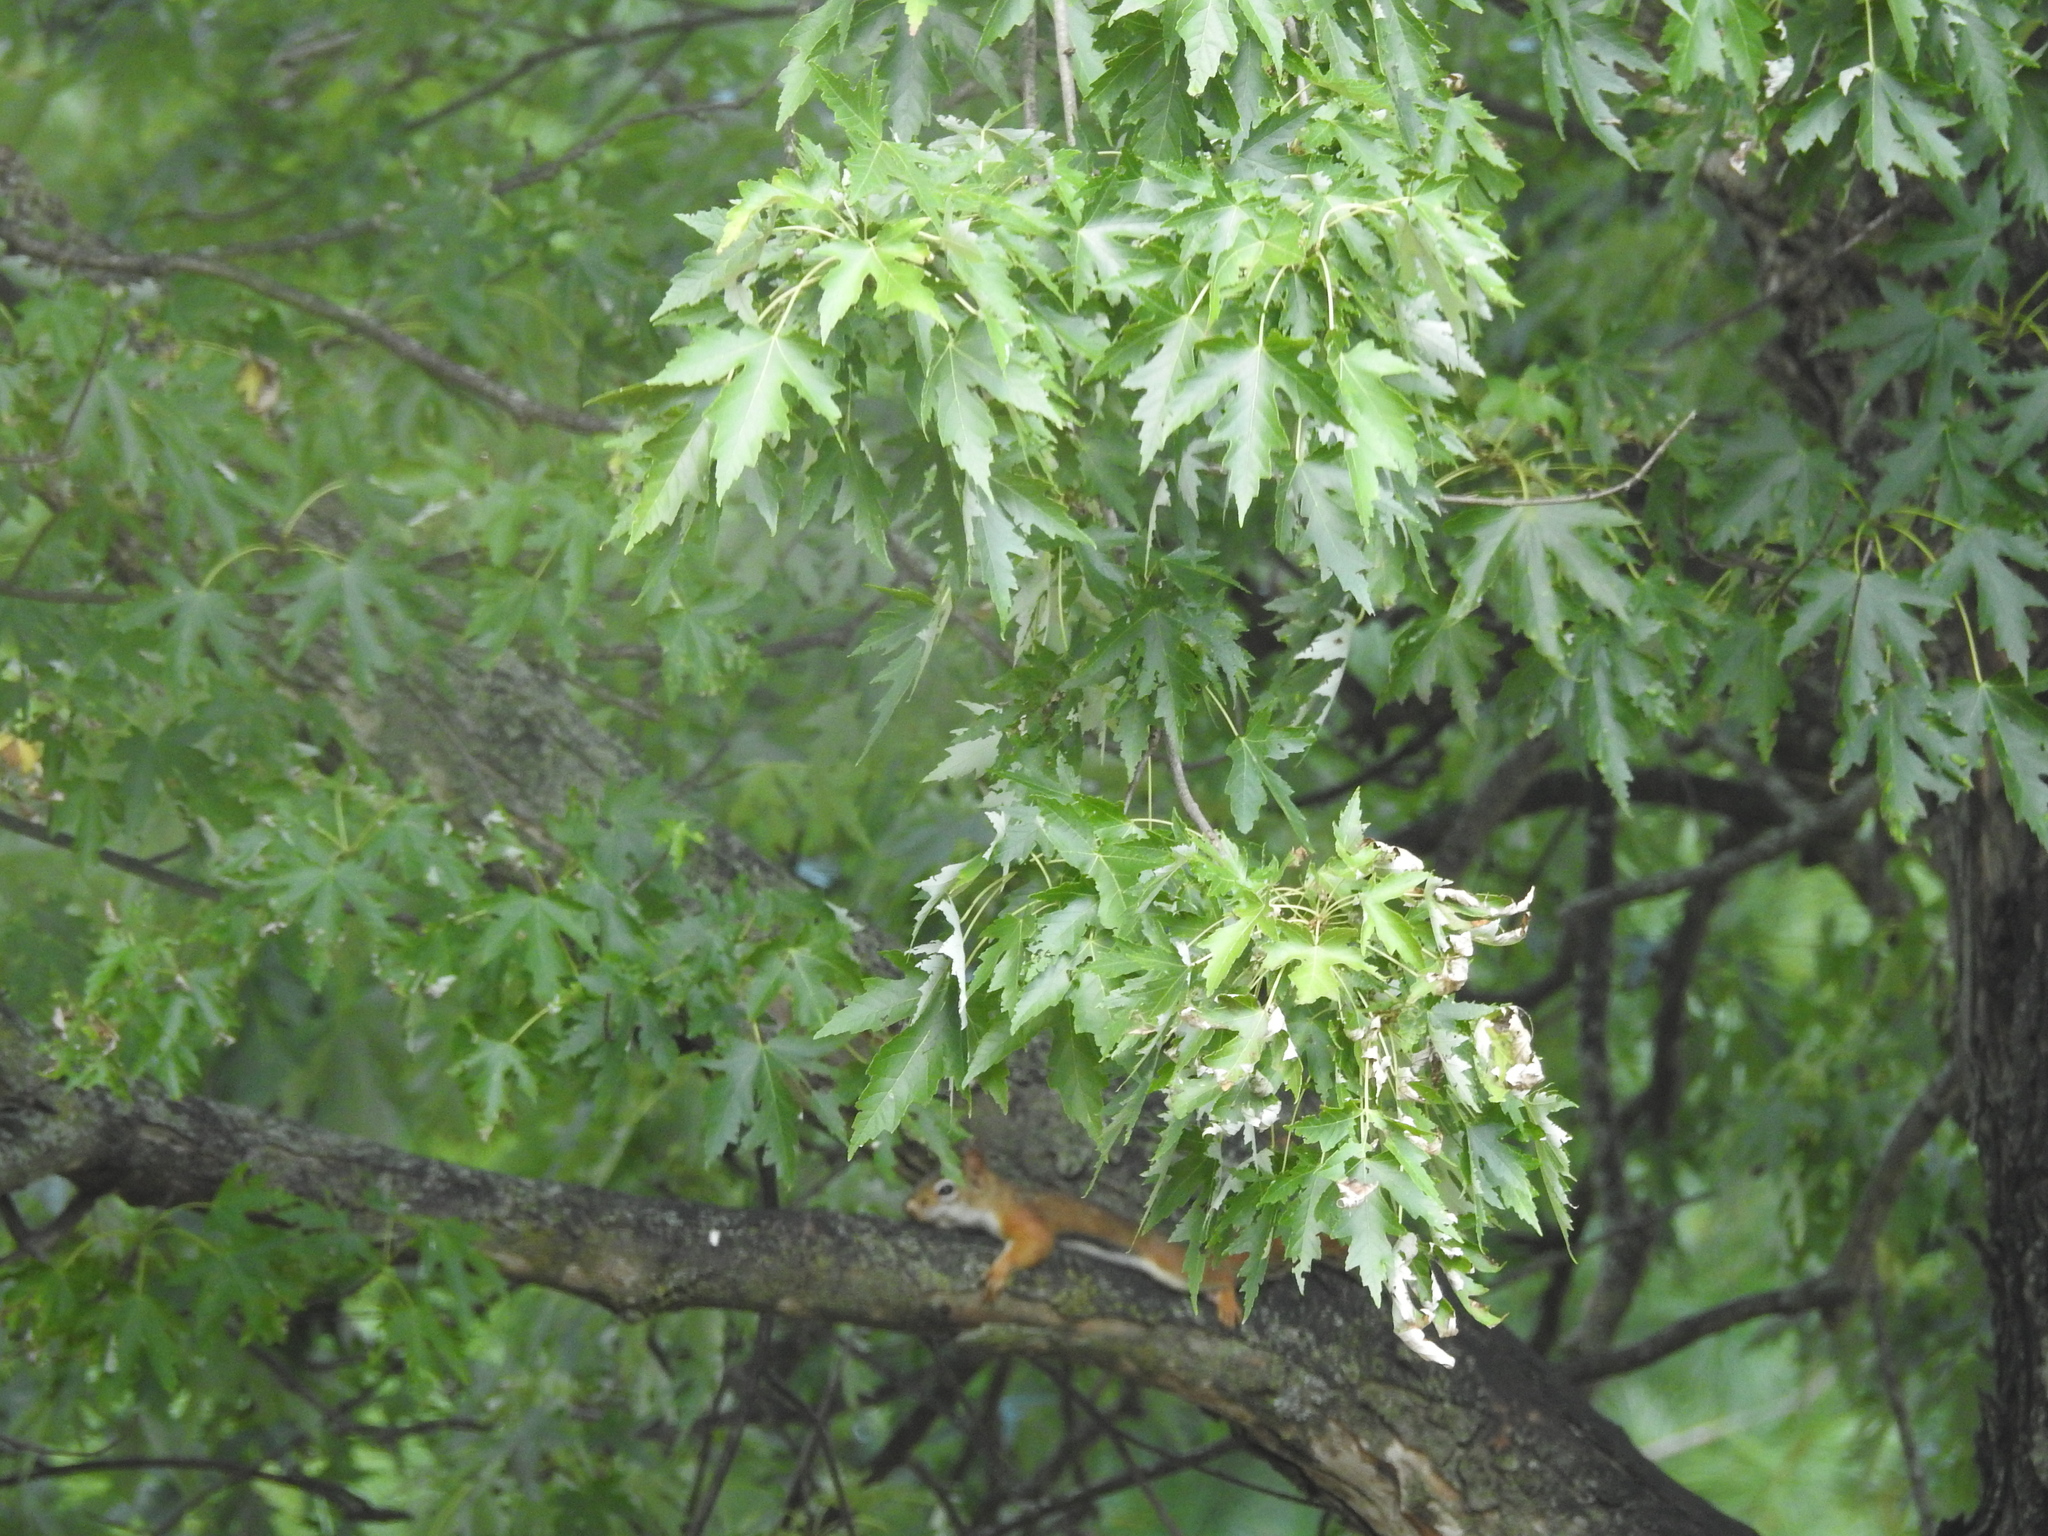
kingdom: Animalia
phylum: Chordata
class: Mammalia
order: Rodentia
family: Sciuridae
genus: Tamiasciurus
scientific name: Tamiasciurus hudsonicus
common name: Red squirrel
